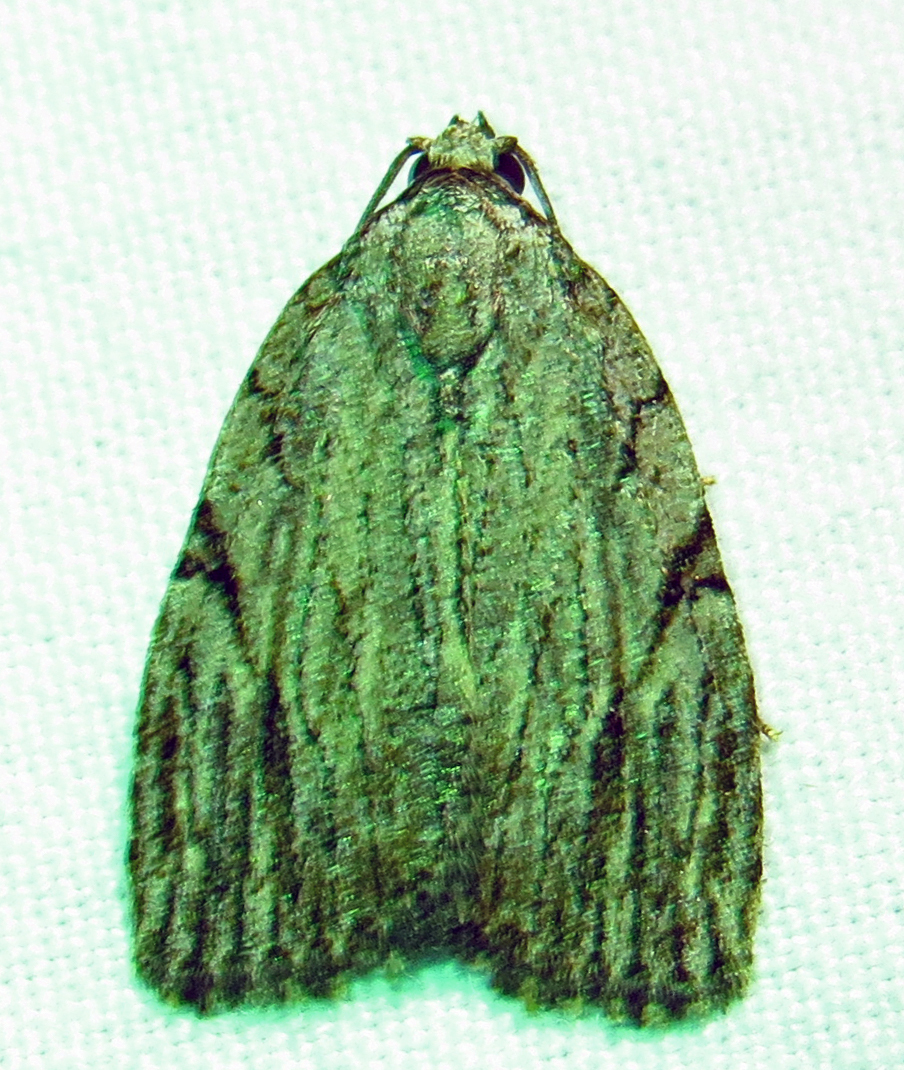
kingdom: Animalia
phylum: Arthropoda
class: Insecta
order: Lepidoptera
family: Noctuidae
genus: Balsa
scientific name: Balsa tristrigella
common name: Three-lined balsa moth
